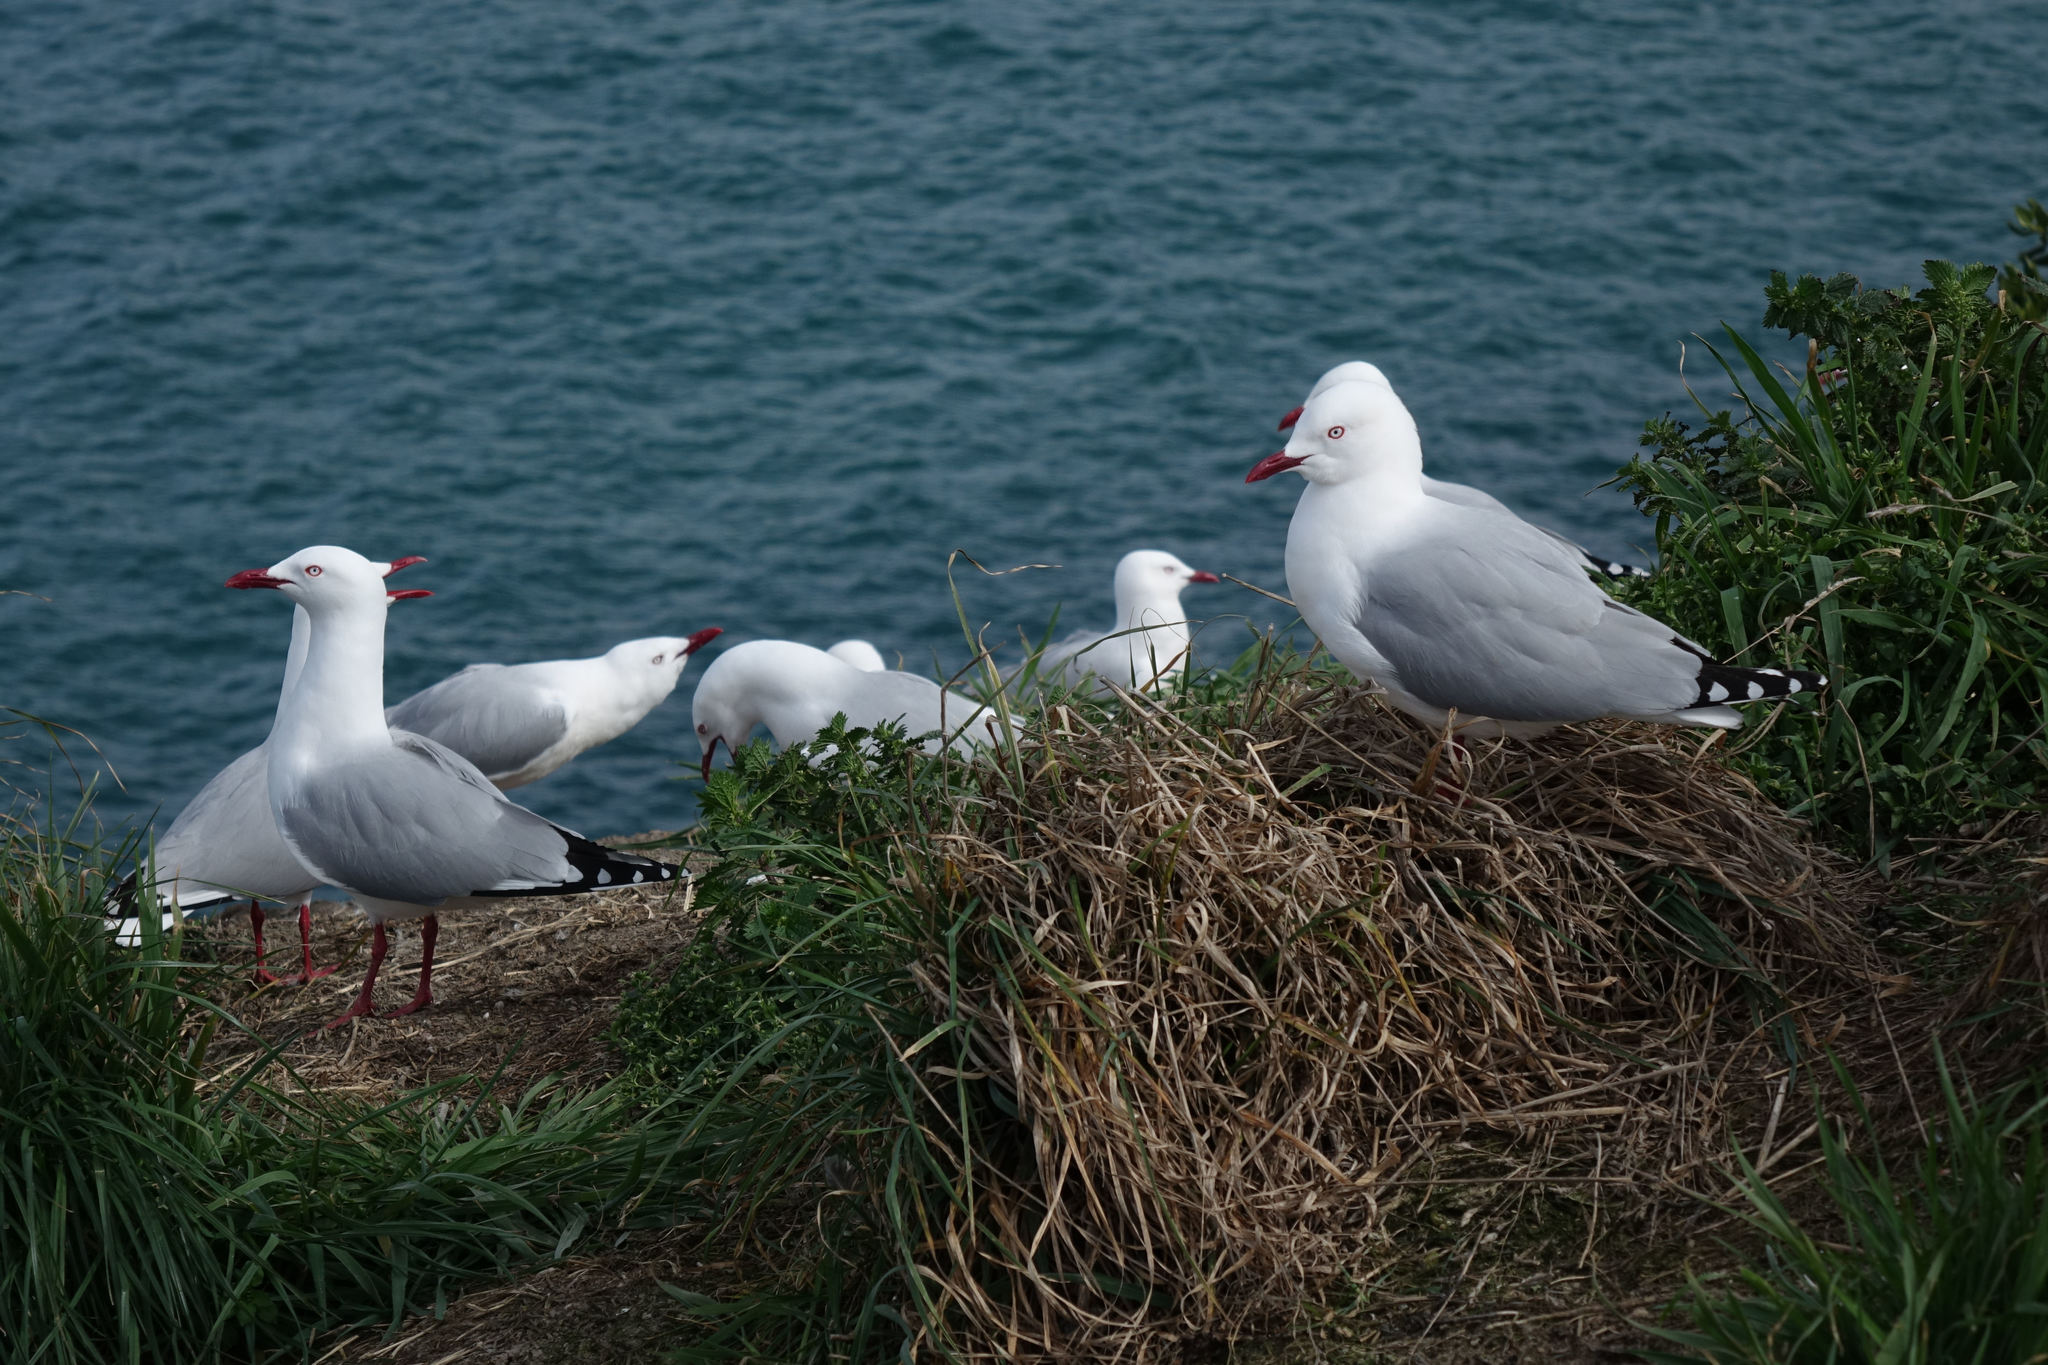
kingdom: Animalia
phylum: Chordata
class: Aves
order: Charadriiformes
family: Laridae
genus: Chroicocephalus
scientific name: Chroicocephalus novaehollandiae
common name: Silver gull
